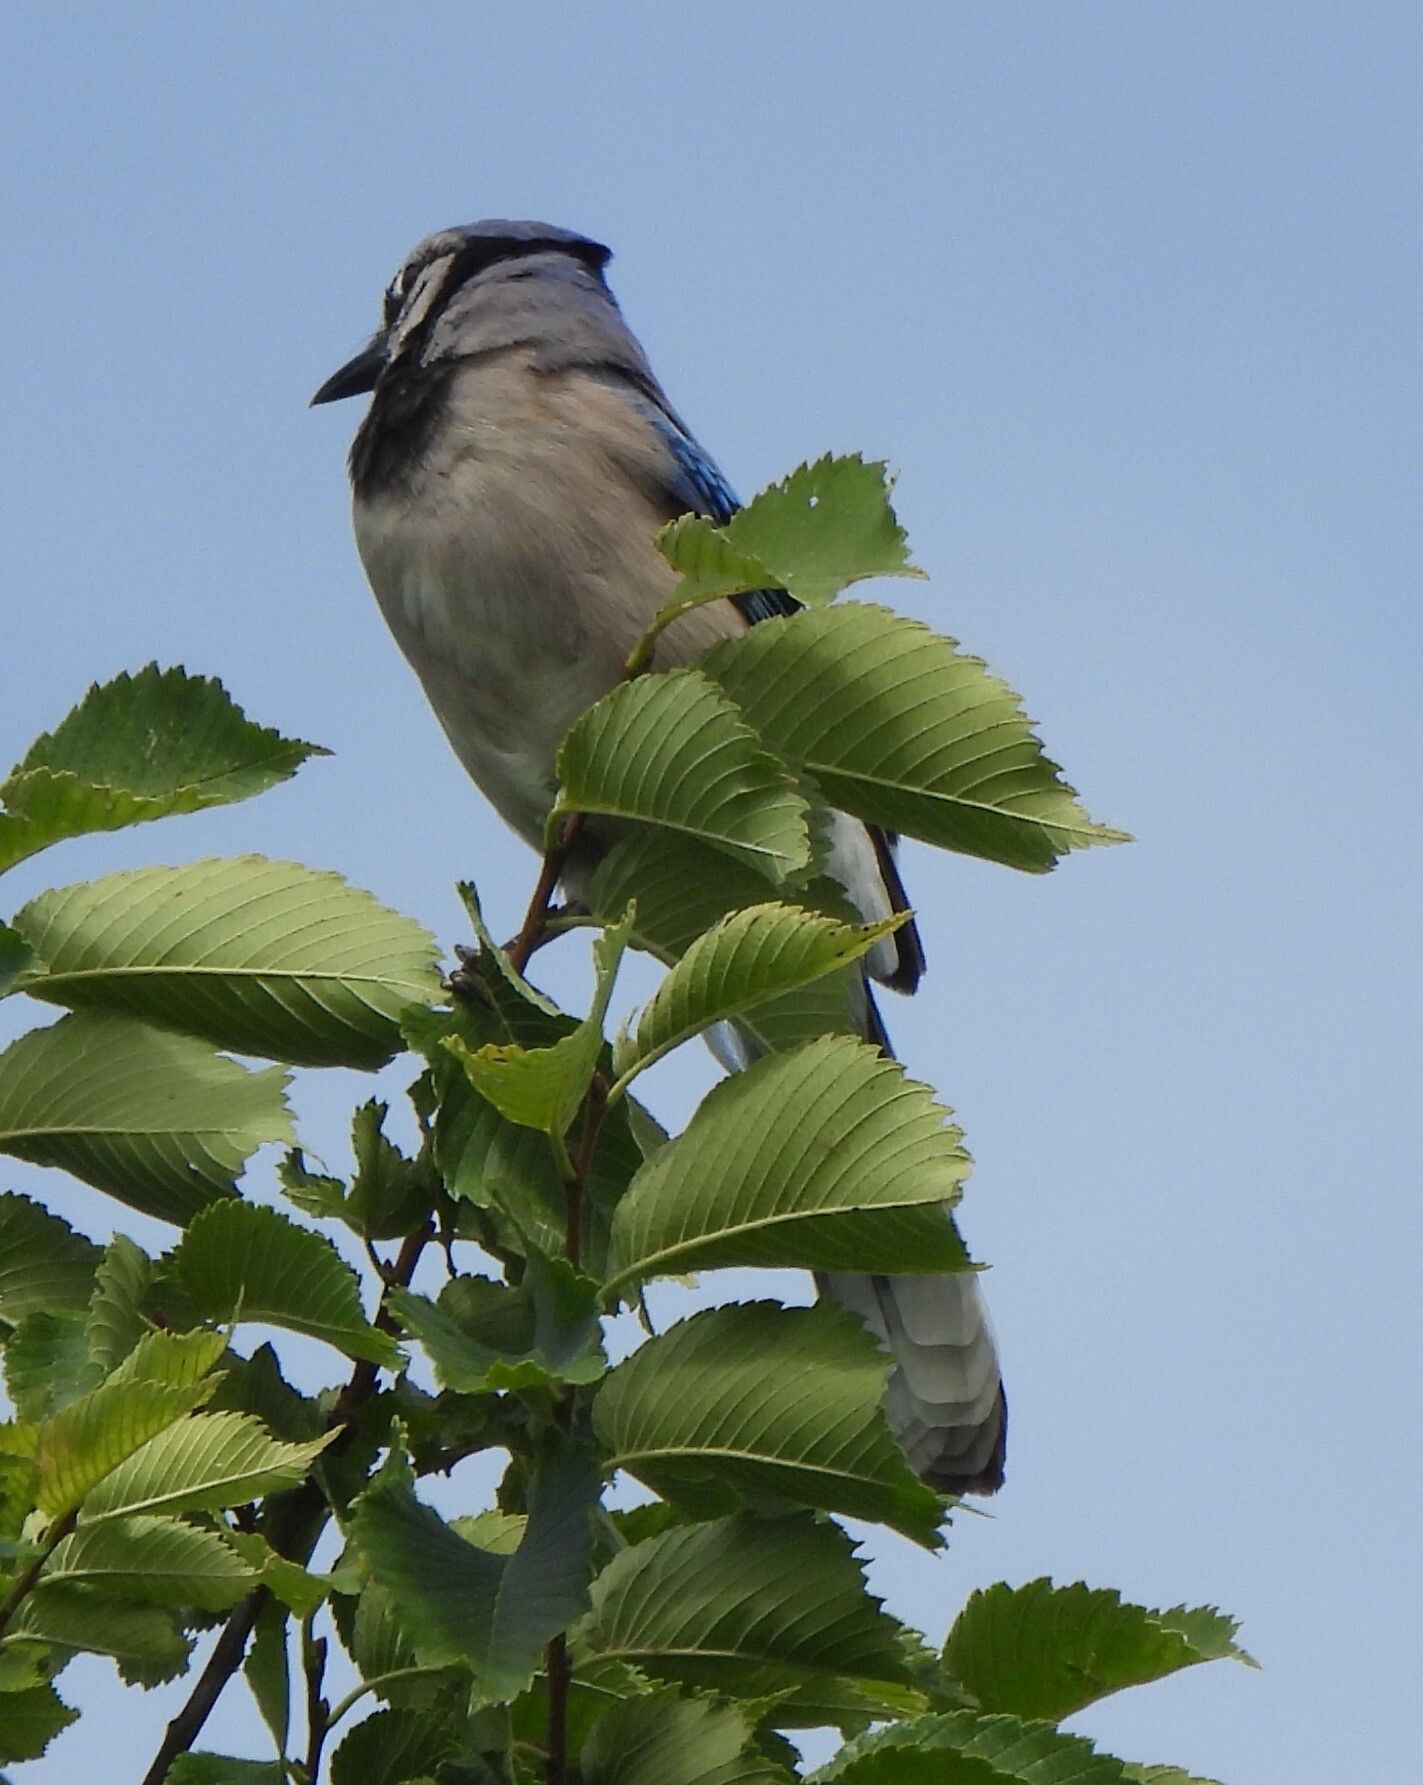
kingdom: Animalia
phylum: Chordata
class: Aves
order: Passeriformes
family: Corvidae
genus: Cyanocitta
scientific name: Cyanocitta cristata
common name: Blue jay
